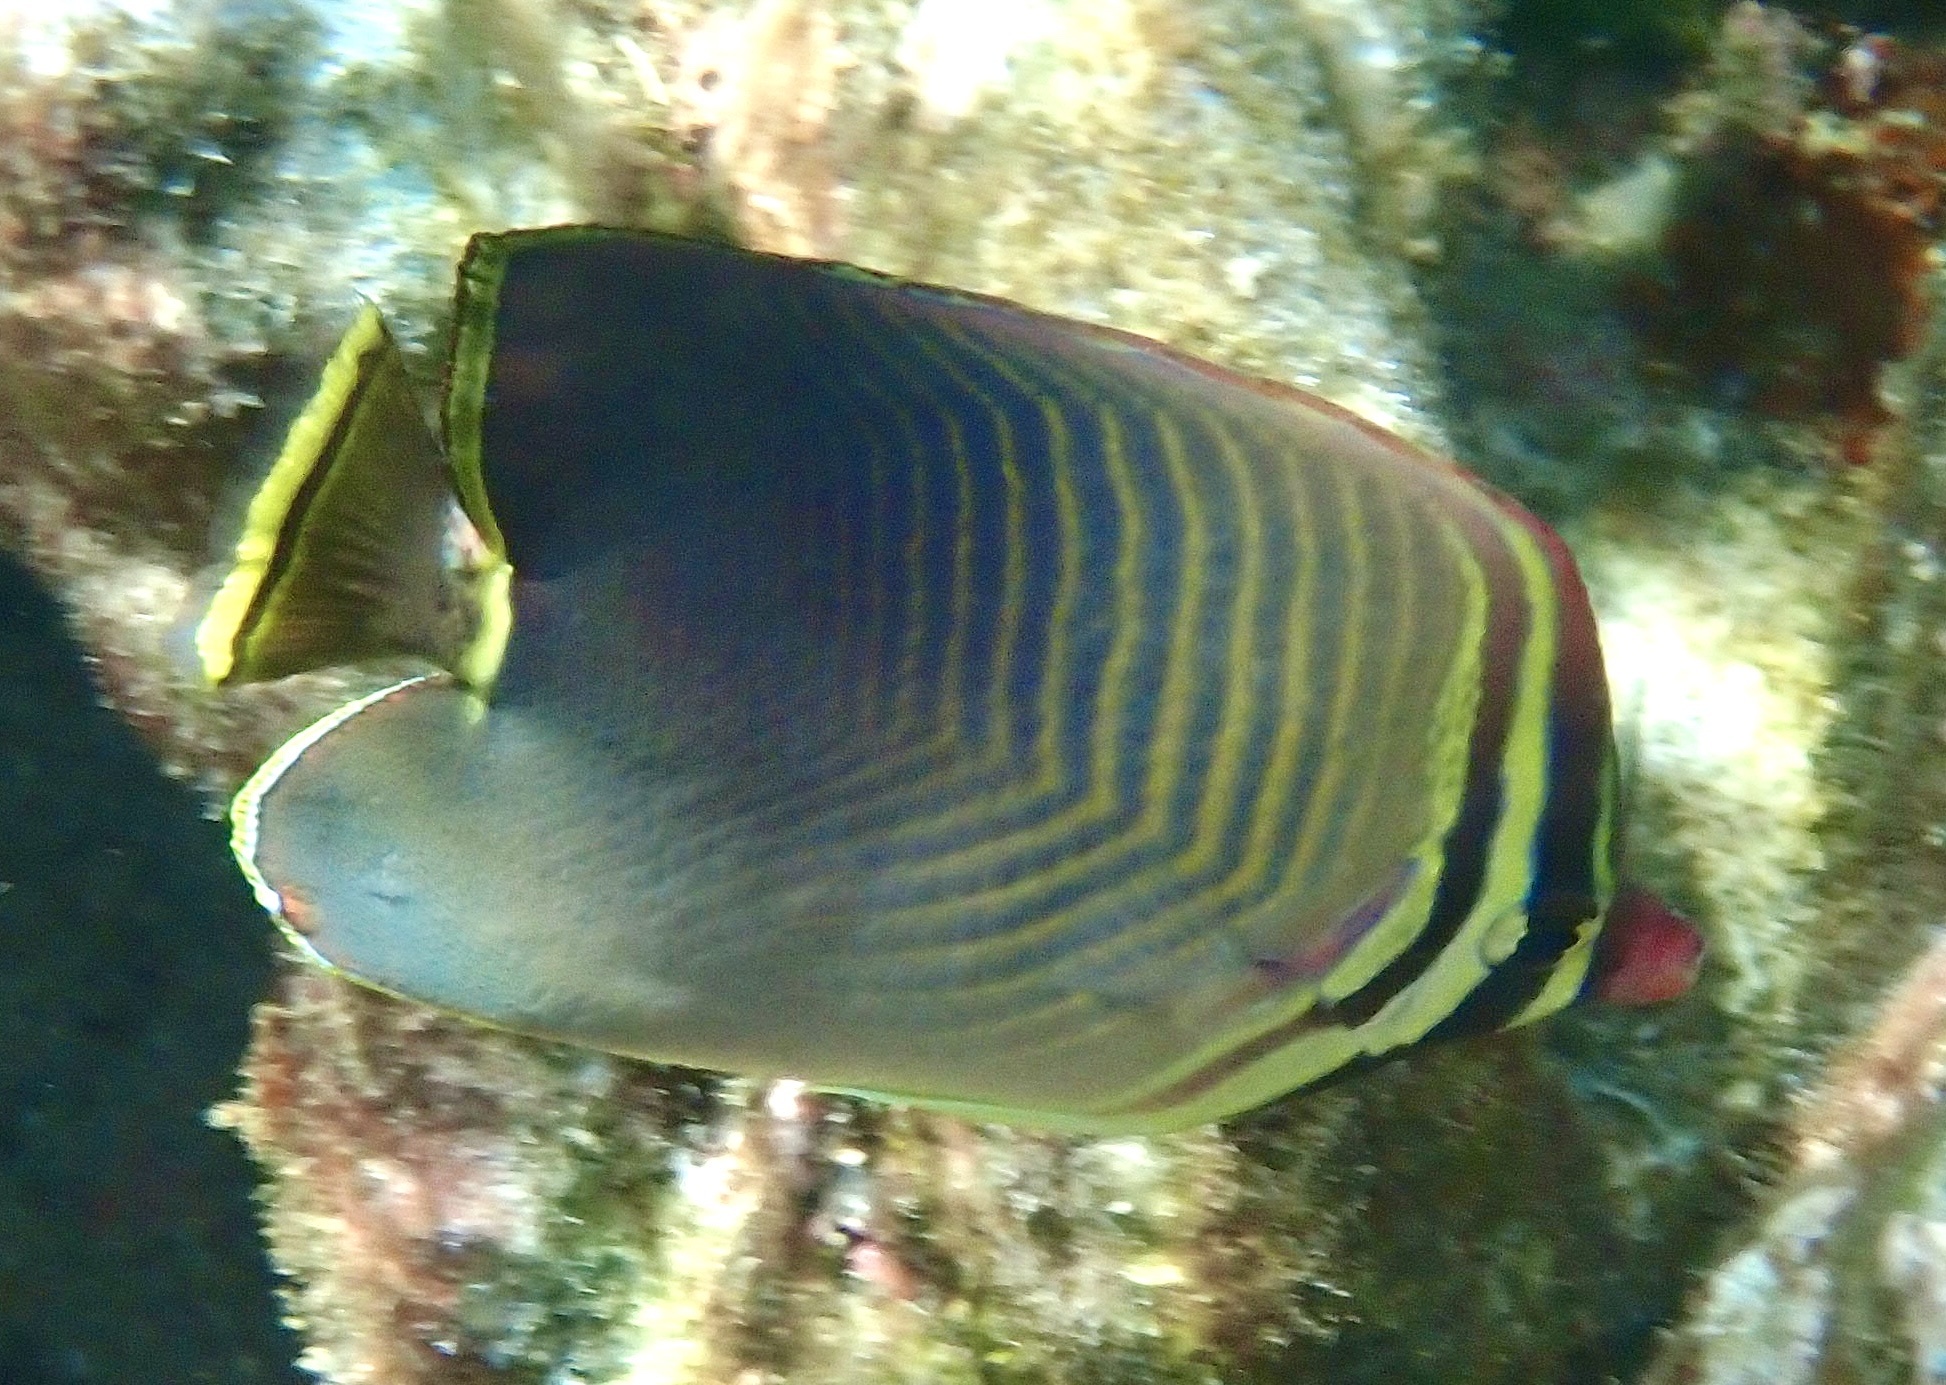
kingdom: Animalia
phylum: Chordata
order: Perciformes
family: Chaetodontidae
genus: Chaetodon
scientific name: Chaetodon baronessa
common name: Triangular butterflyfish
